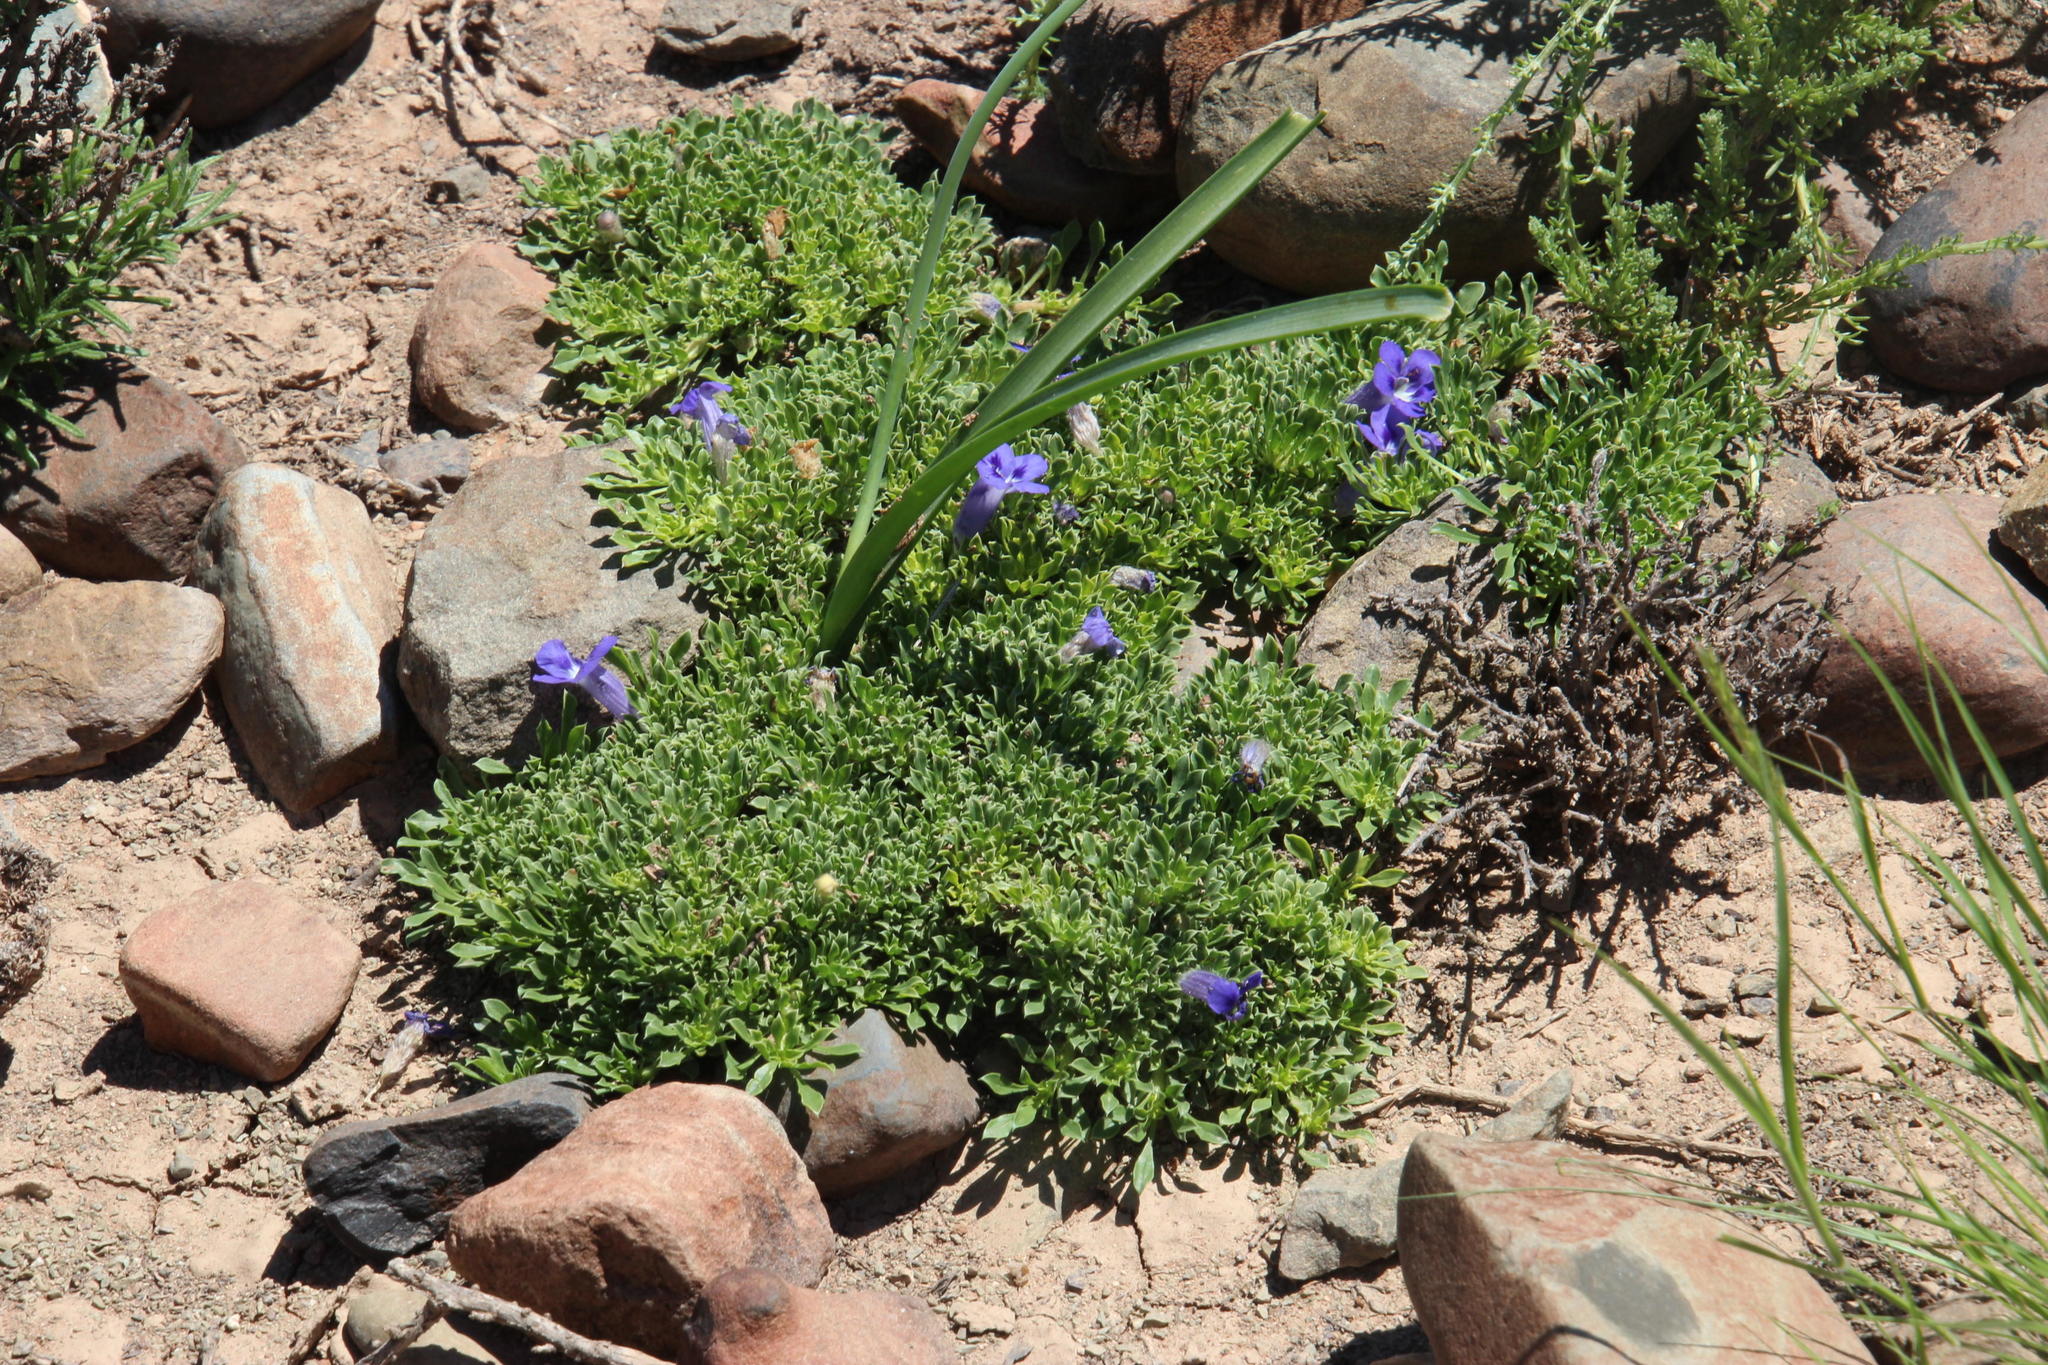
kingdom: Plantae
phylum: Tracheophyta
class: Magnoliopsida
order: Lamiales
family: Scrophulariaceae
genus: Aptosimum
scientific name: Aptosimum procumbens
